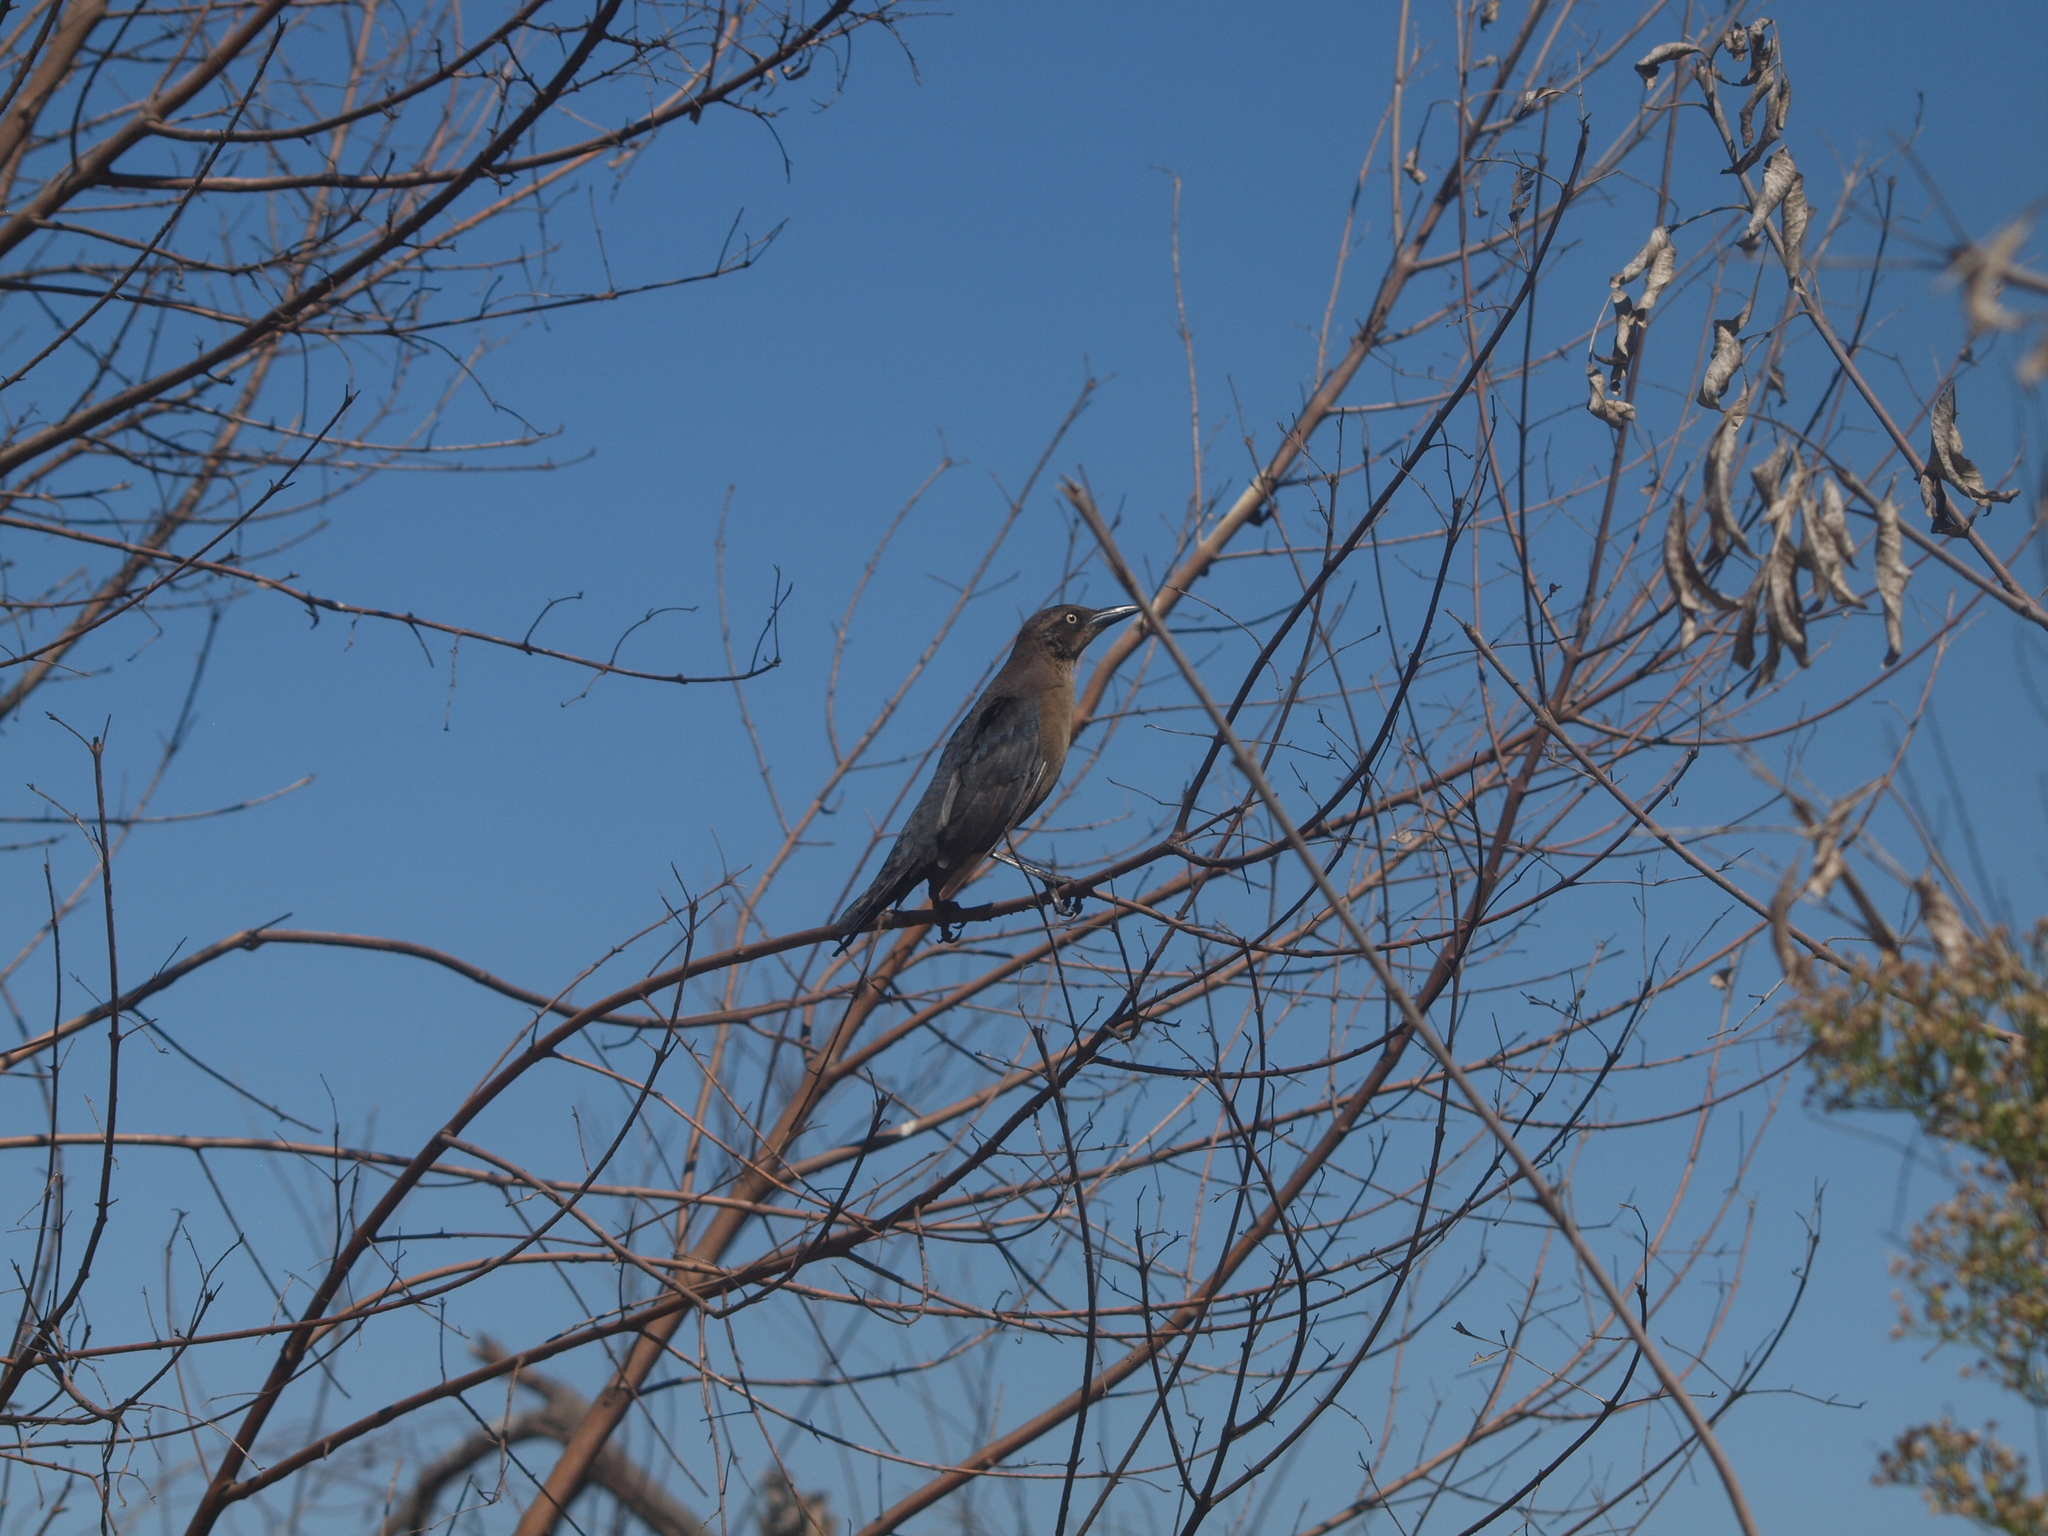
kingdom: Animalia
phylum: Chordata
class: Aves
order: Passeriformes
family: Icteridae
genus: Quiscalus
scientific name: Quiscalus mexicanus
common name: Great-tailed grackle
